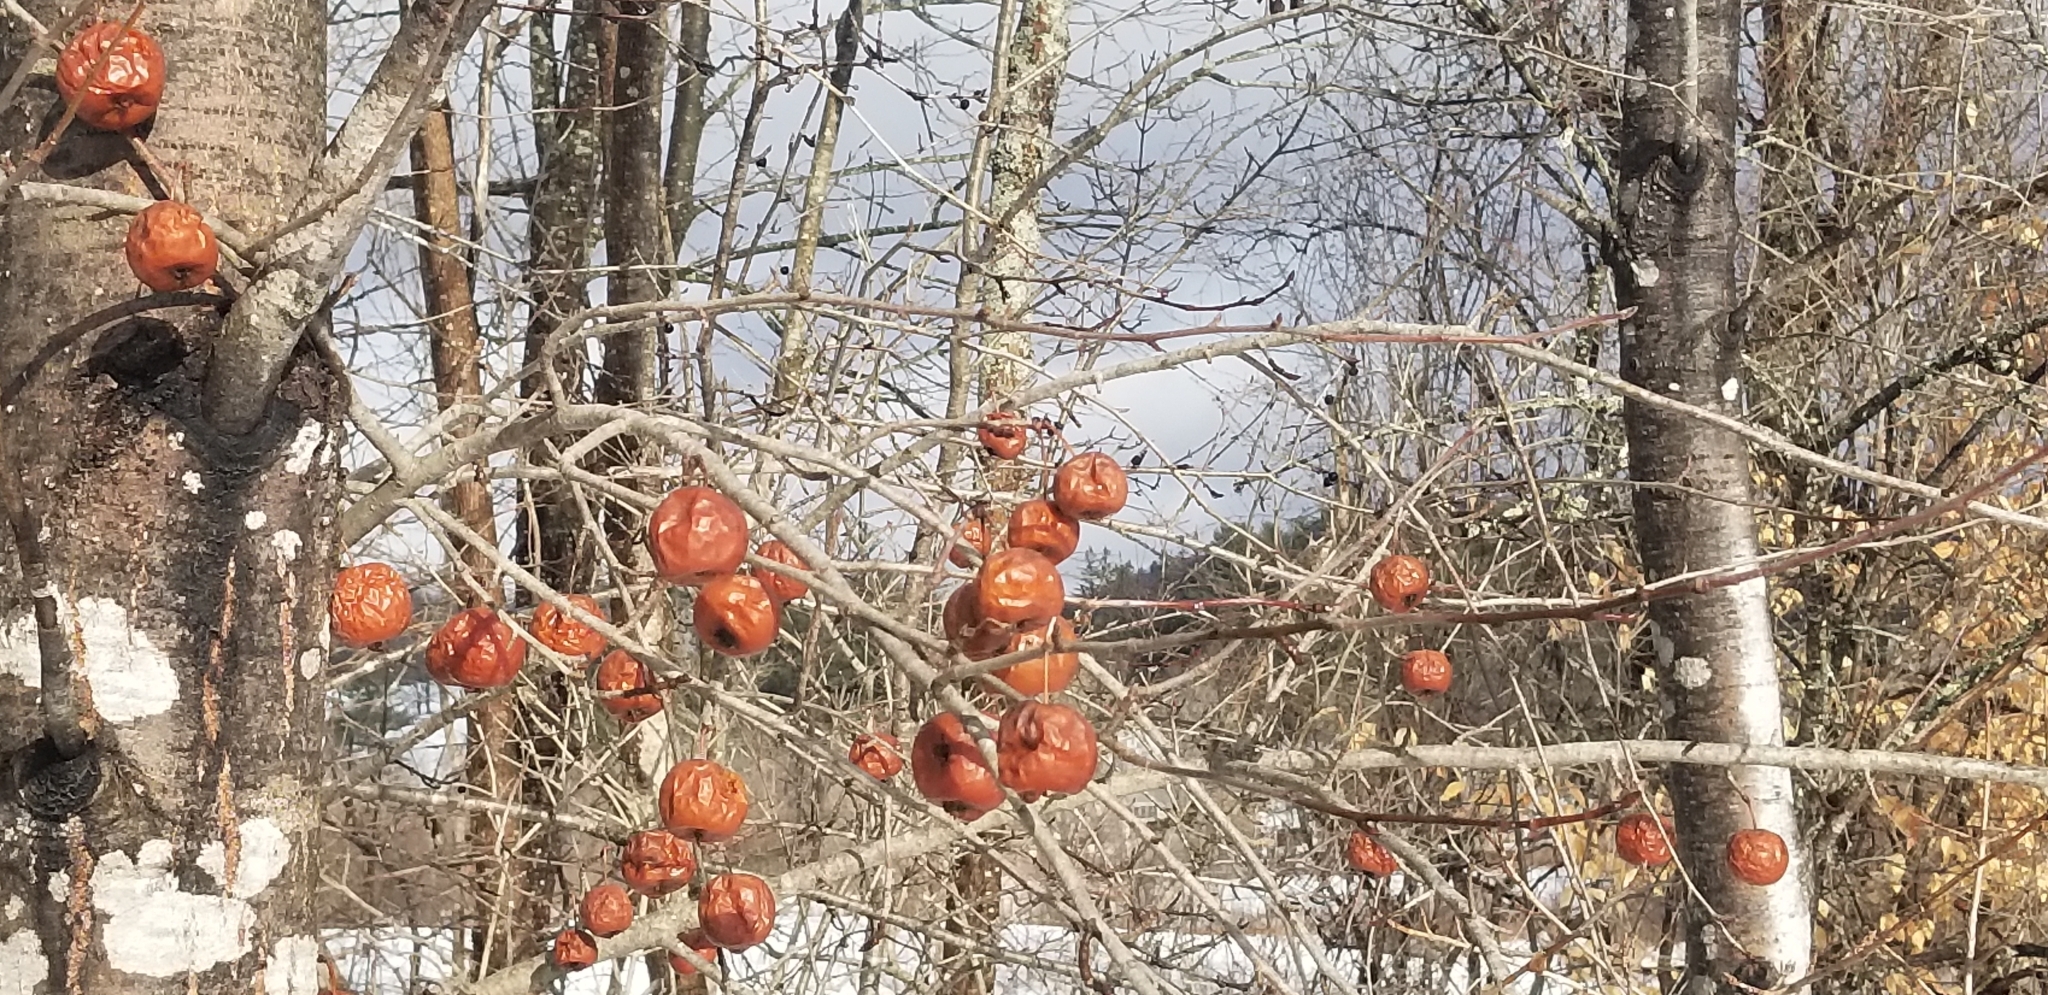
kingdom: Plantae
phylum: Tracheophyta
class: Magnoliopsida
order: Rosales
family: Rosaceae
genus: Malus
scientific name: Malus domestica
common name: Apple
